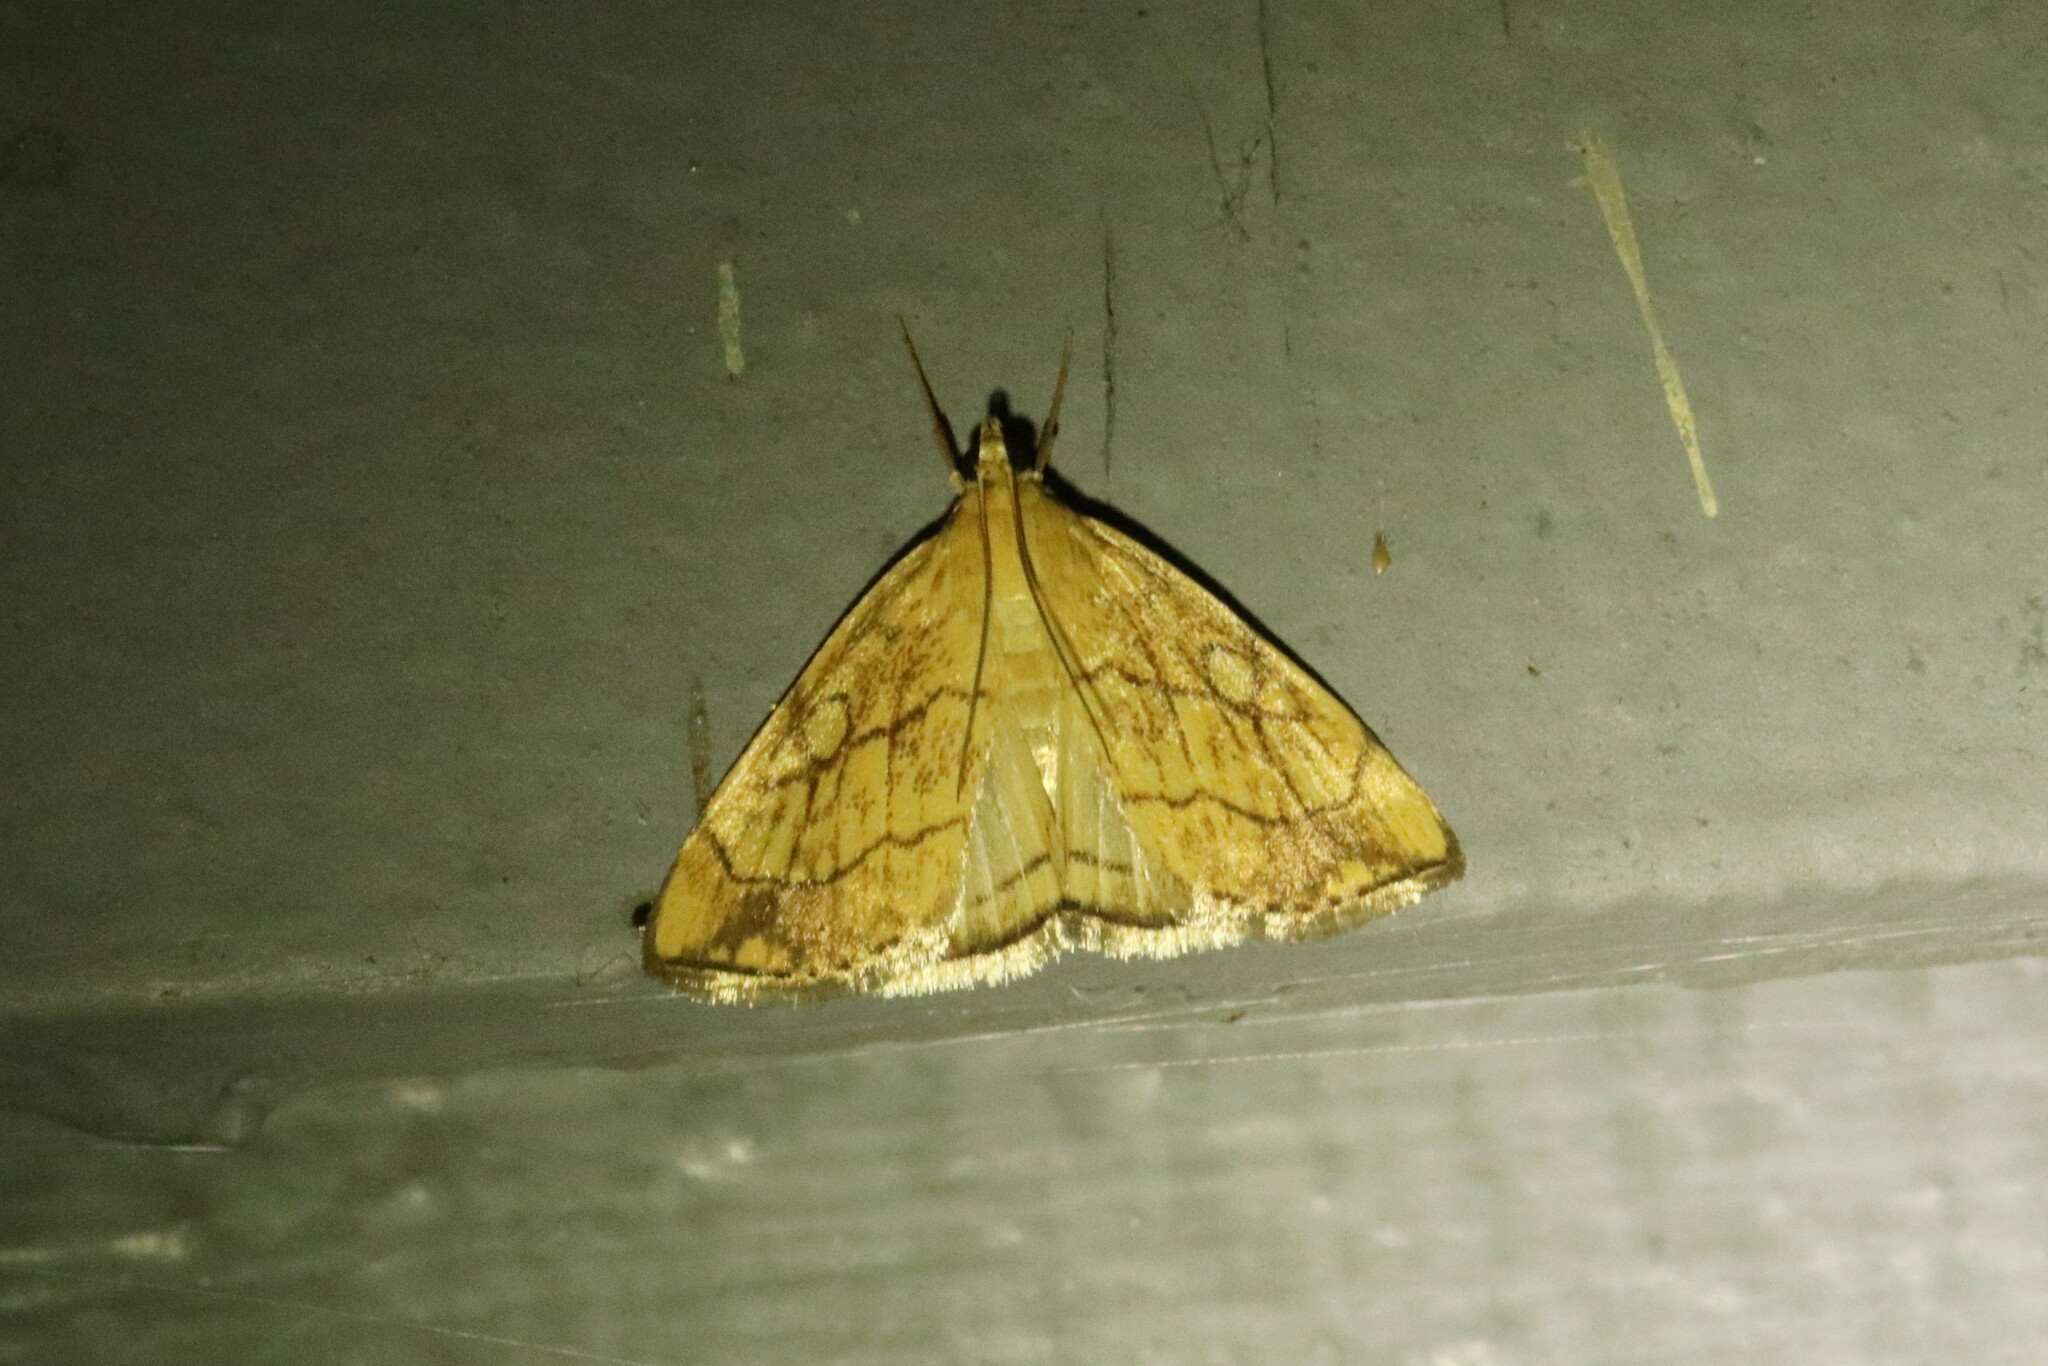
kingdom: Animalia
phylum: Arthropoda
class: Insecta
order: Lepidoptera
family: Crambidae
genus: Evergestis
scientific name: Evergestis pallidata
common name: Chequered pearl
